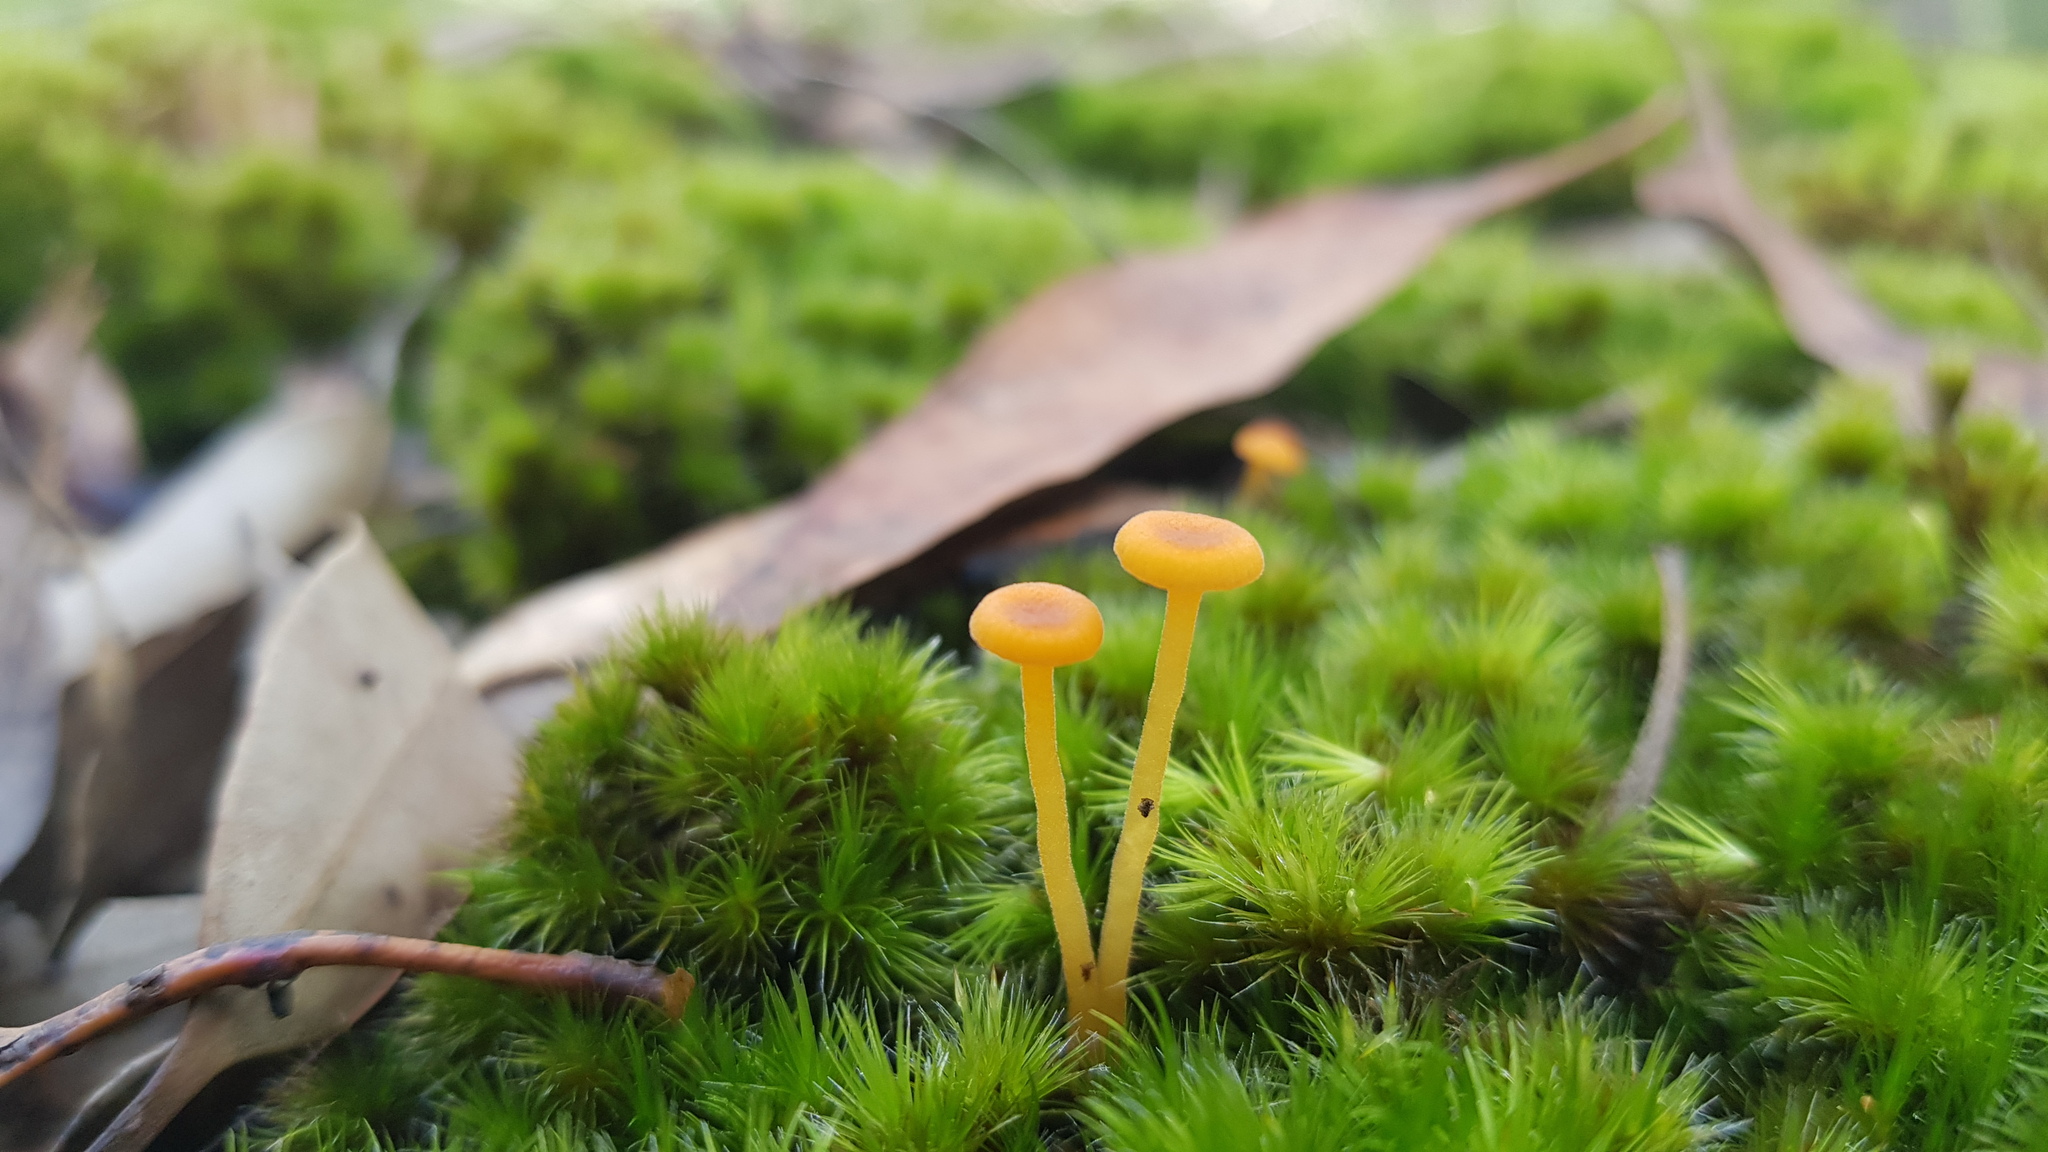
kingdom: Fungi
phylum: Basidiomycota
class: Agaricomycetes
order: Hymenochaetales
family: Rickenellaceae
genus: Rickenella
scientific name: Rickenella fibula
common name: Orange mosscap
